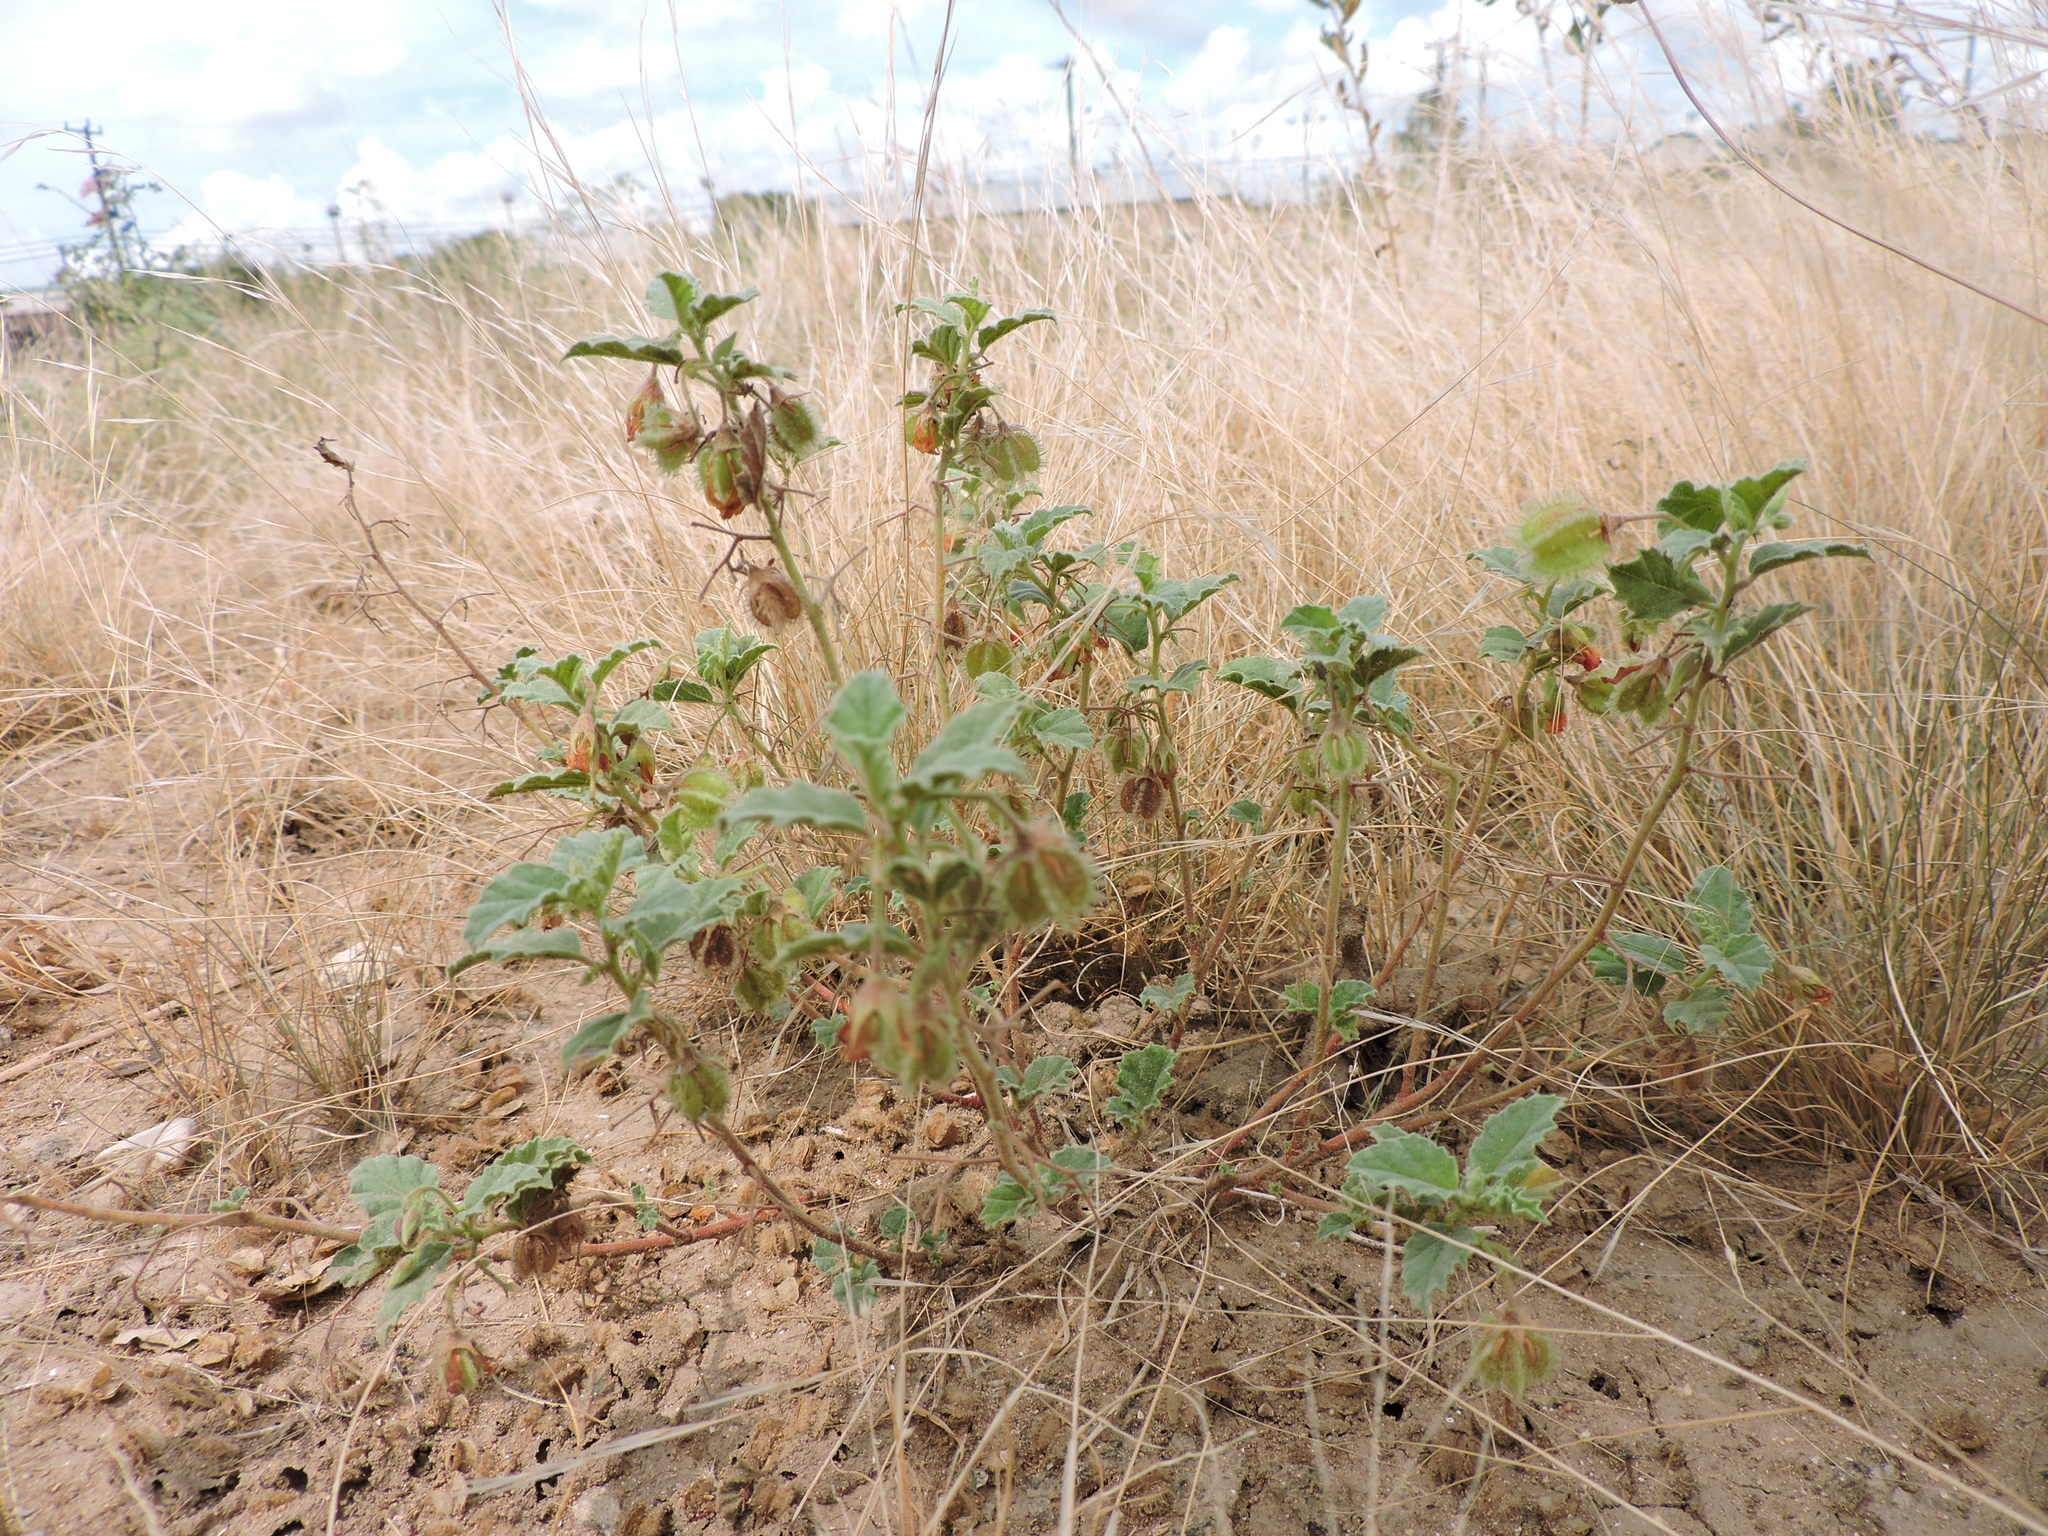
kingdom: Plantae
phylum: Tracheophyta
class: Magnoliopsida
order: Malvales
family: Malvaceae
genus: Hermannia
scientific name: Hermannia texana
